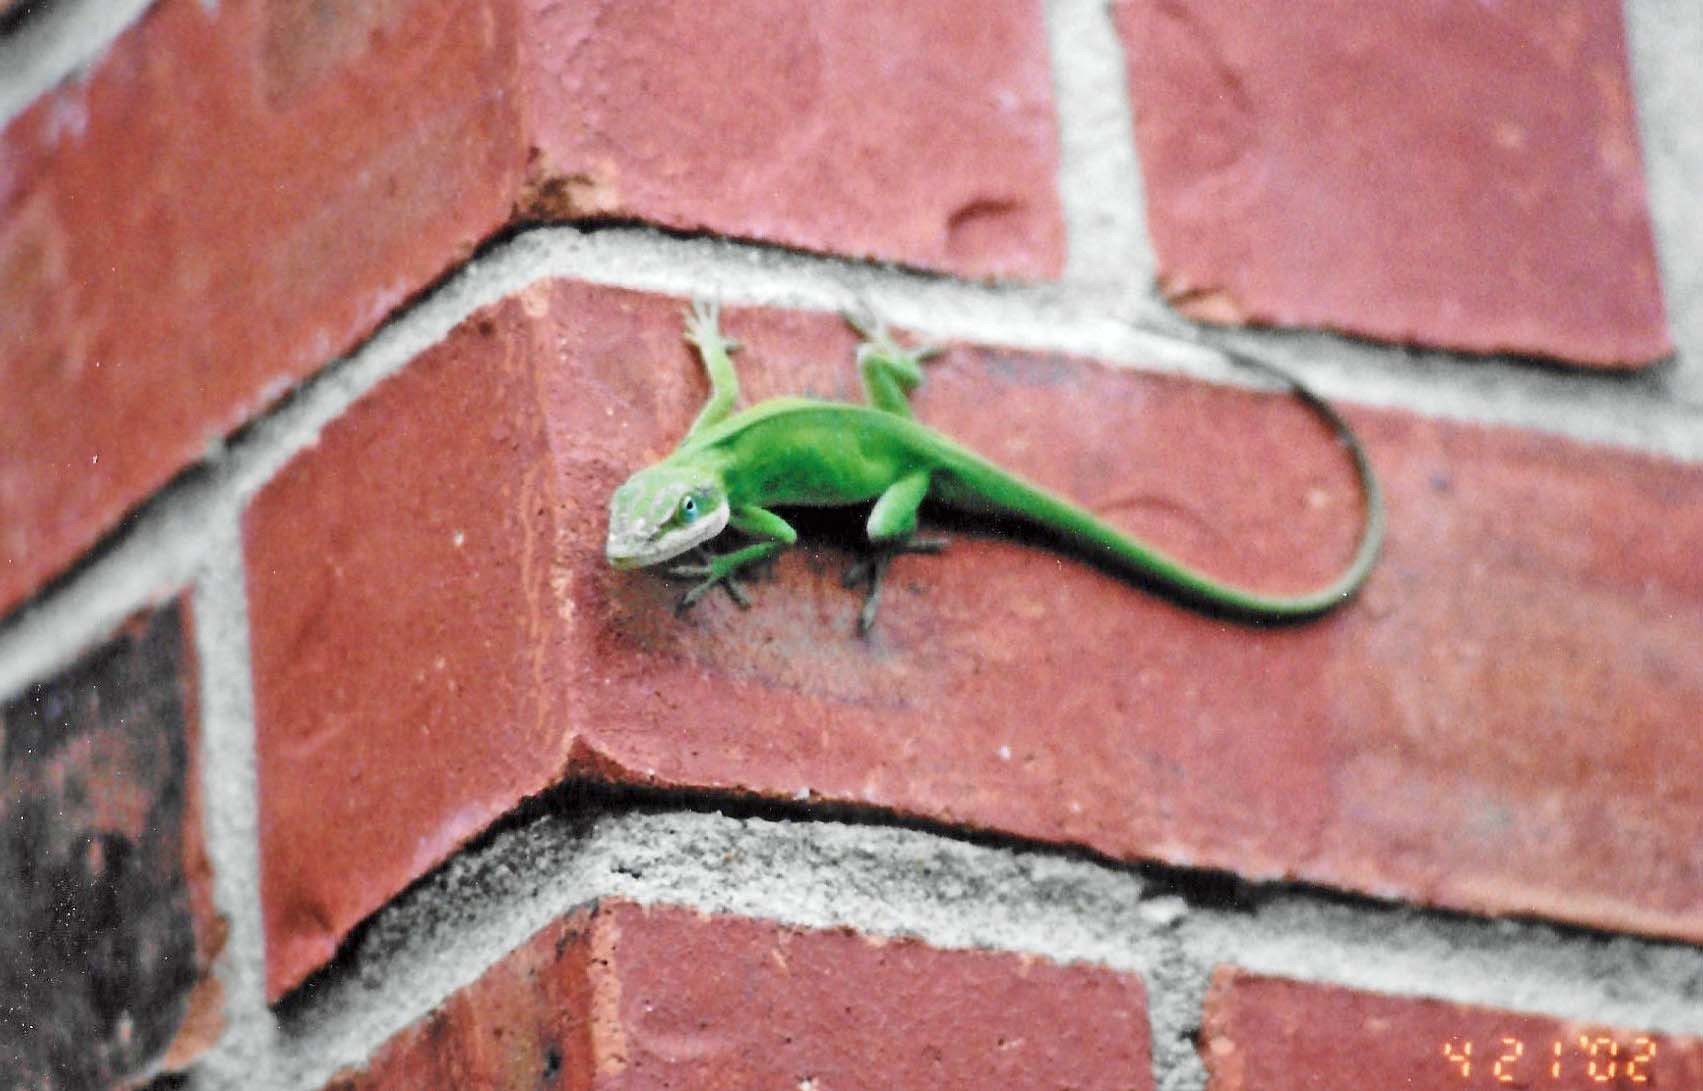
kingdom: Animalia
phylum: Chordata
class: Squamata
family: Dactyloidae
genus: Anolis
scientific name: Anolis carolinensis
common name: Green anole
